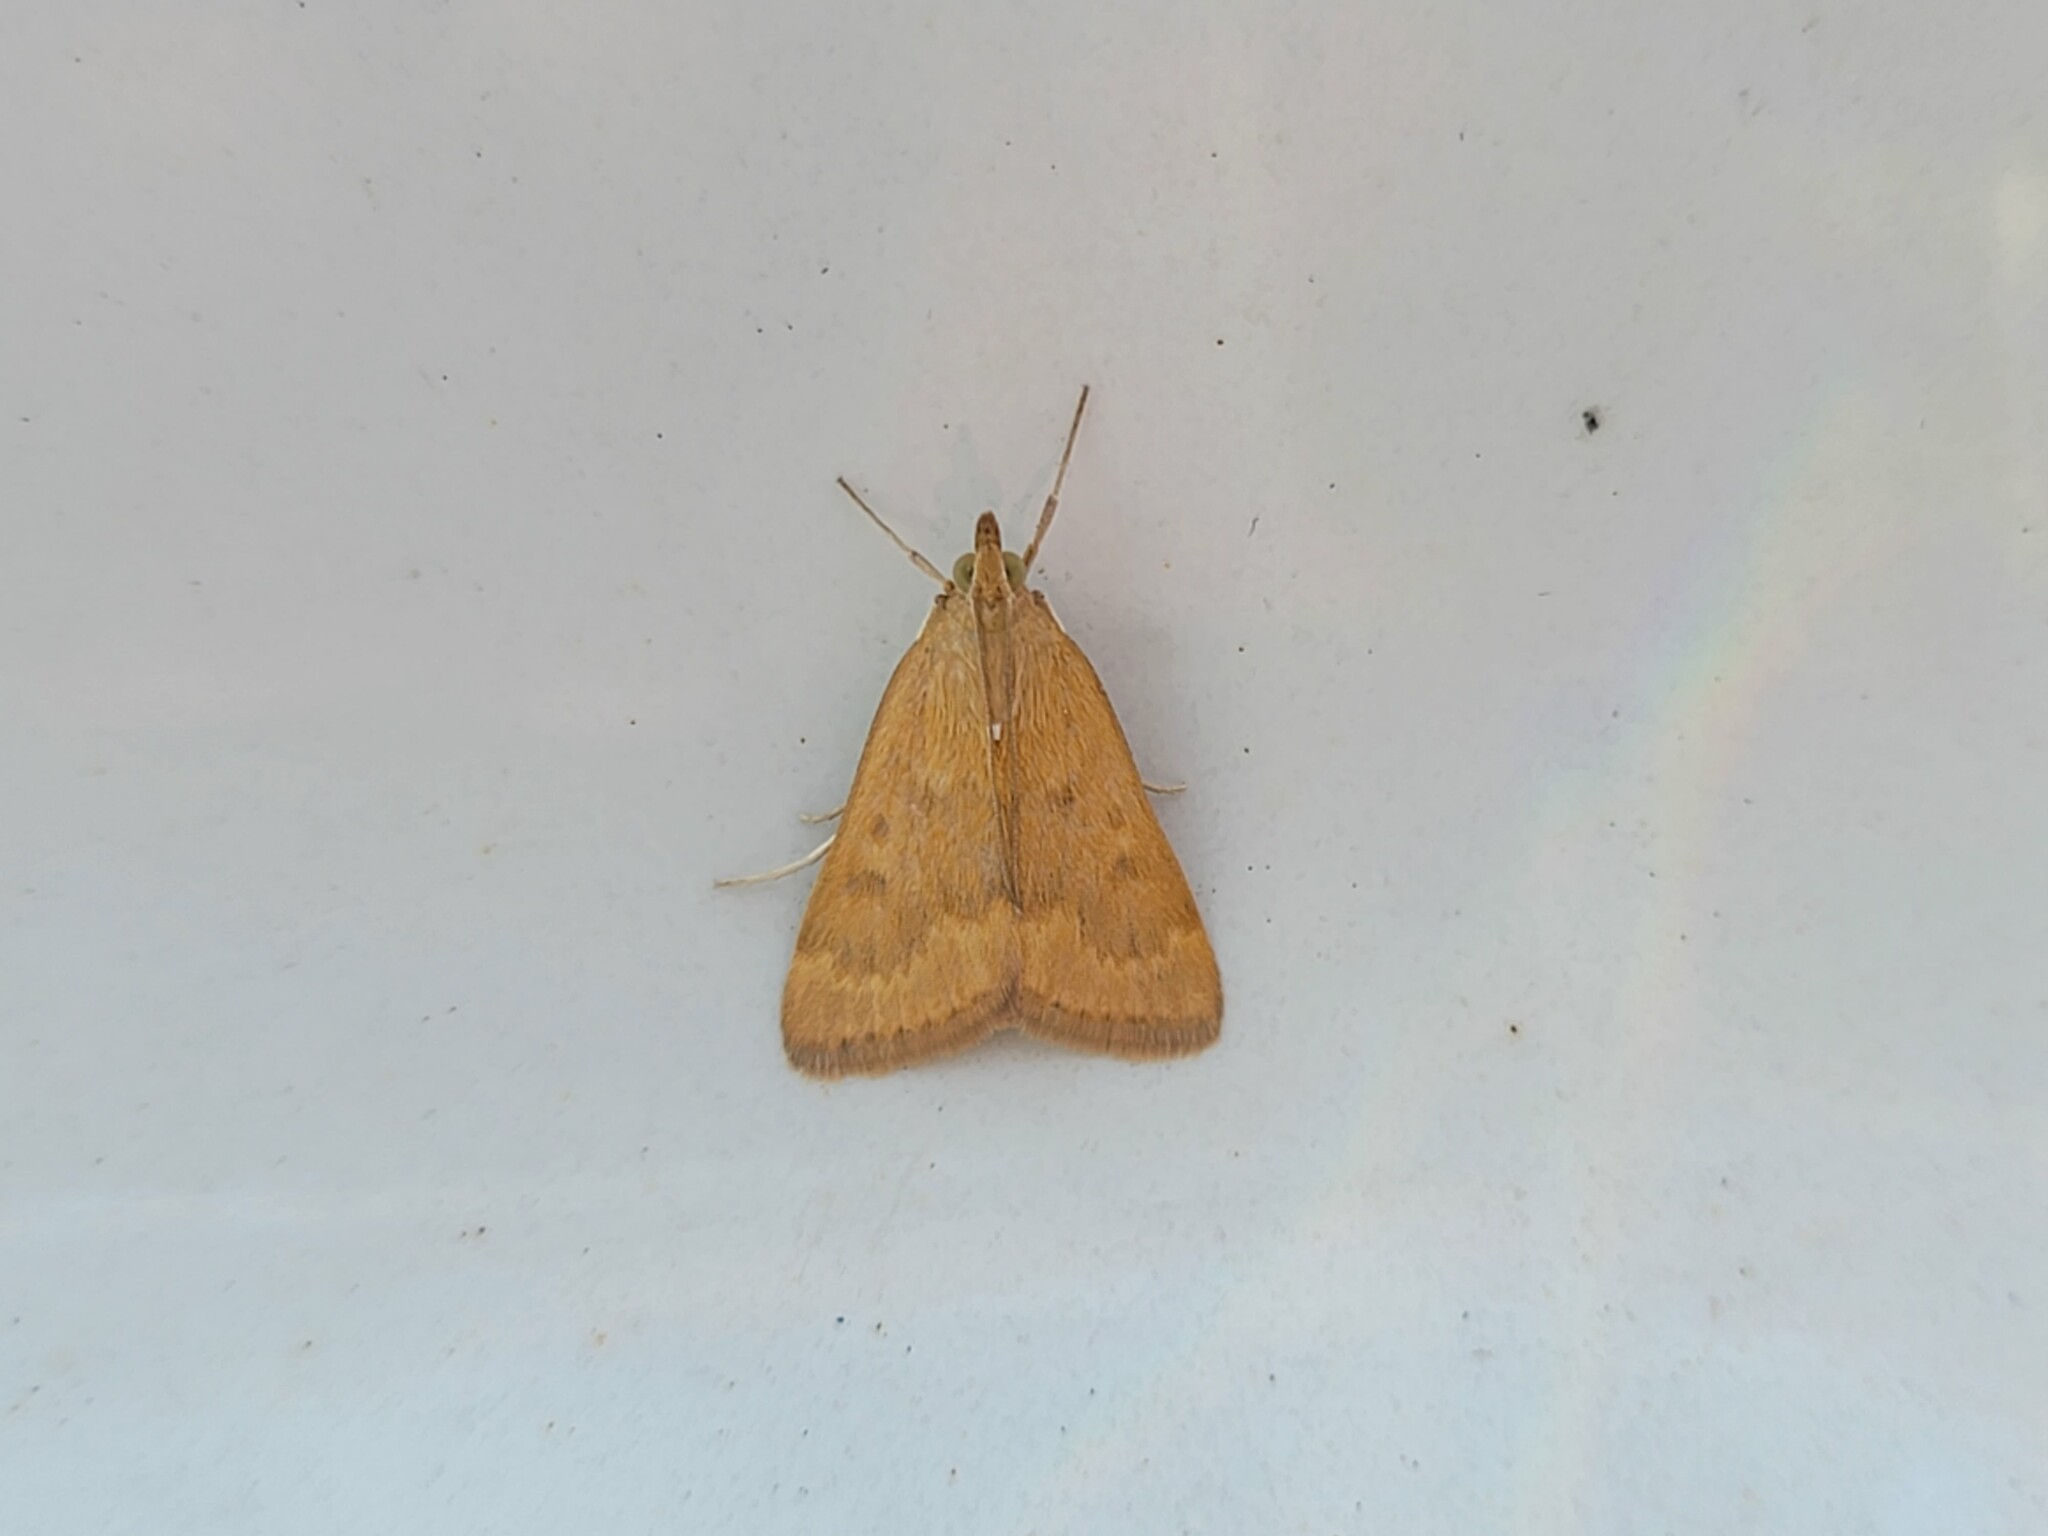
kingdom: Animalia
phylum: Arthropoda
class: Insecta
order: Lepidoptera
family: Crambidae
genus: Achyra
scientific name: Achyra rantalis
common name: Garden webworm
